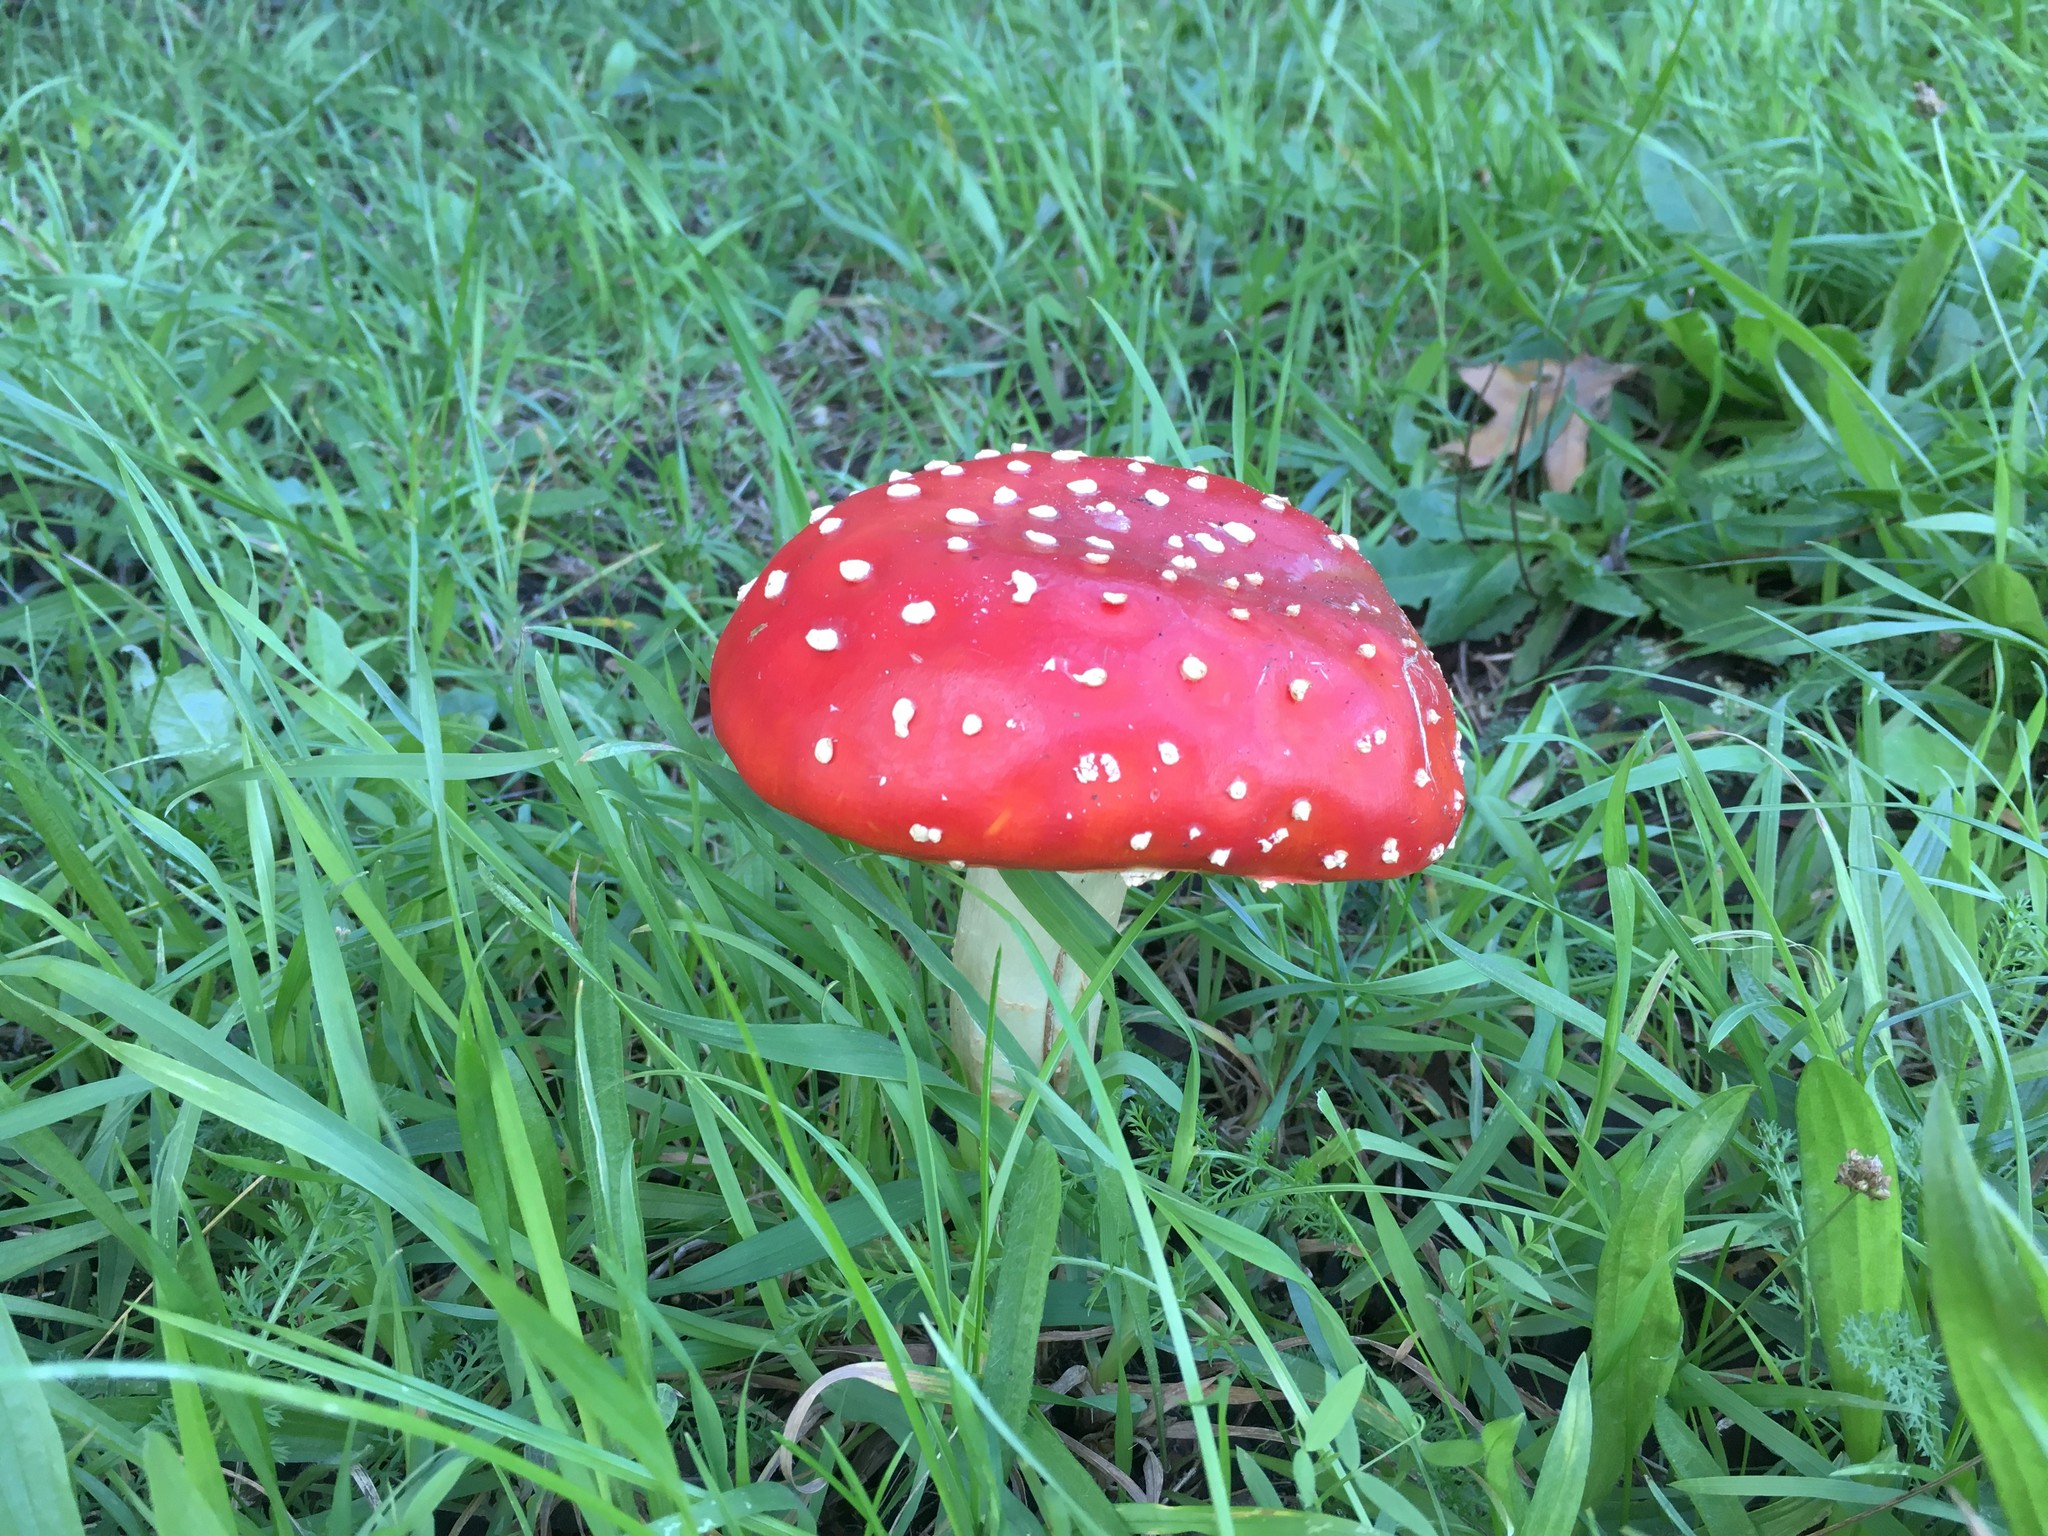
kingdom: Fungi
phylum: Basidiomycota
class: Agaricomycetes
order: Agaricales
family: Amanitaceae
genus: Amanita
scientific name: Amanita muscaria
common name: Fly agaric
